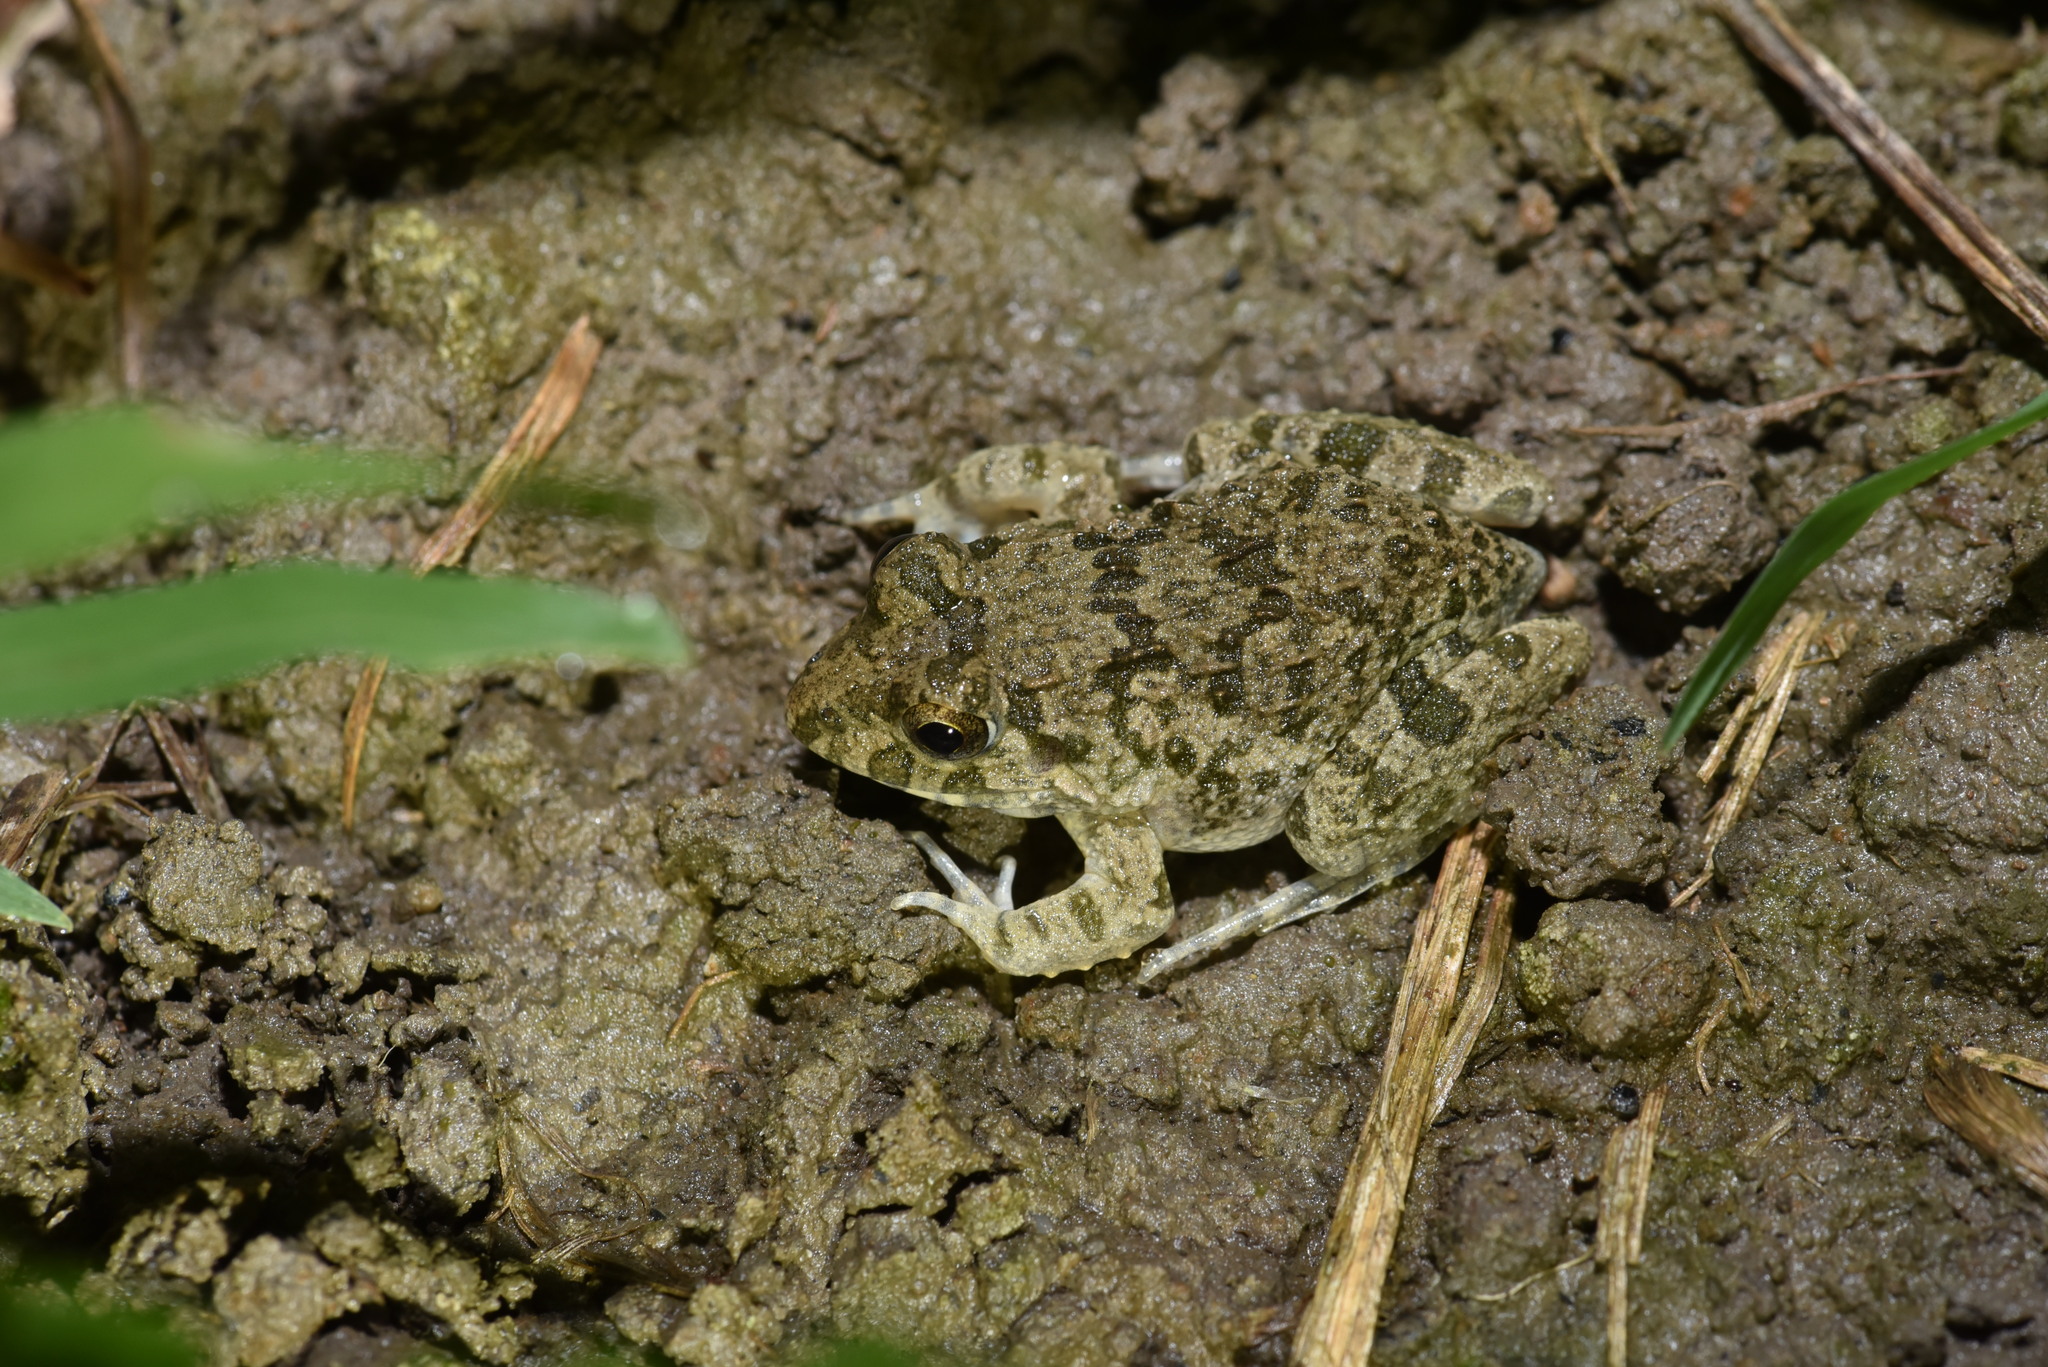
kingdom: Animalia
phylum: Chordata
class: Amphibia
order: Anura
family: Dicroglossidae
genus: Fejervarya
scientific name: Fejervarya limnocharis
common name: Asian grass frog/common pond frog/field frog/grass frog/indian rice frog
